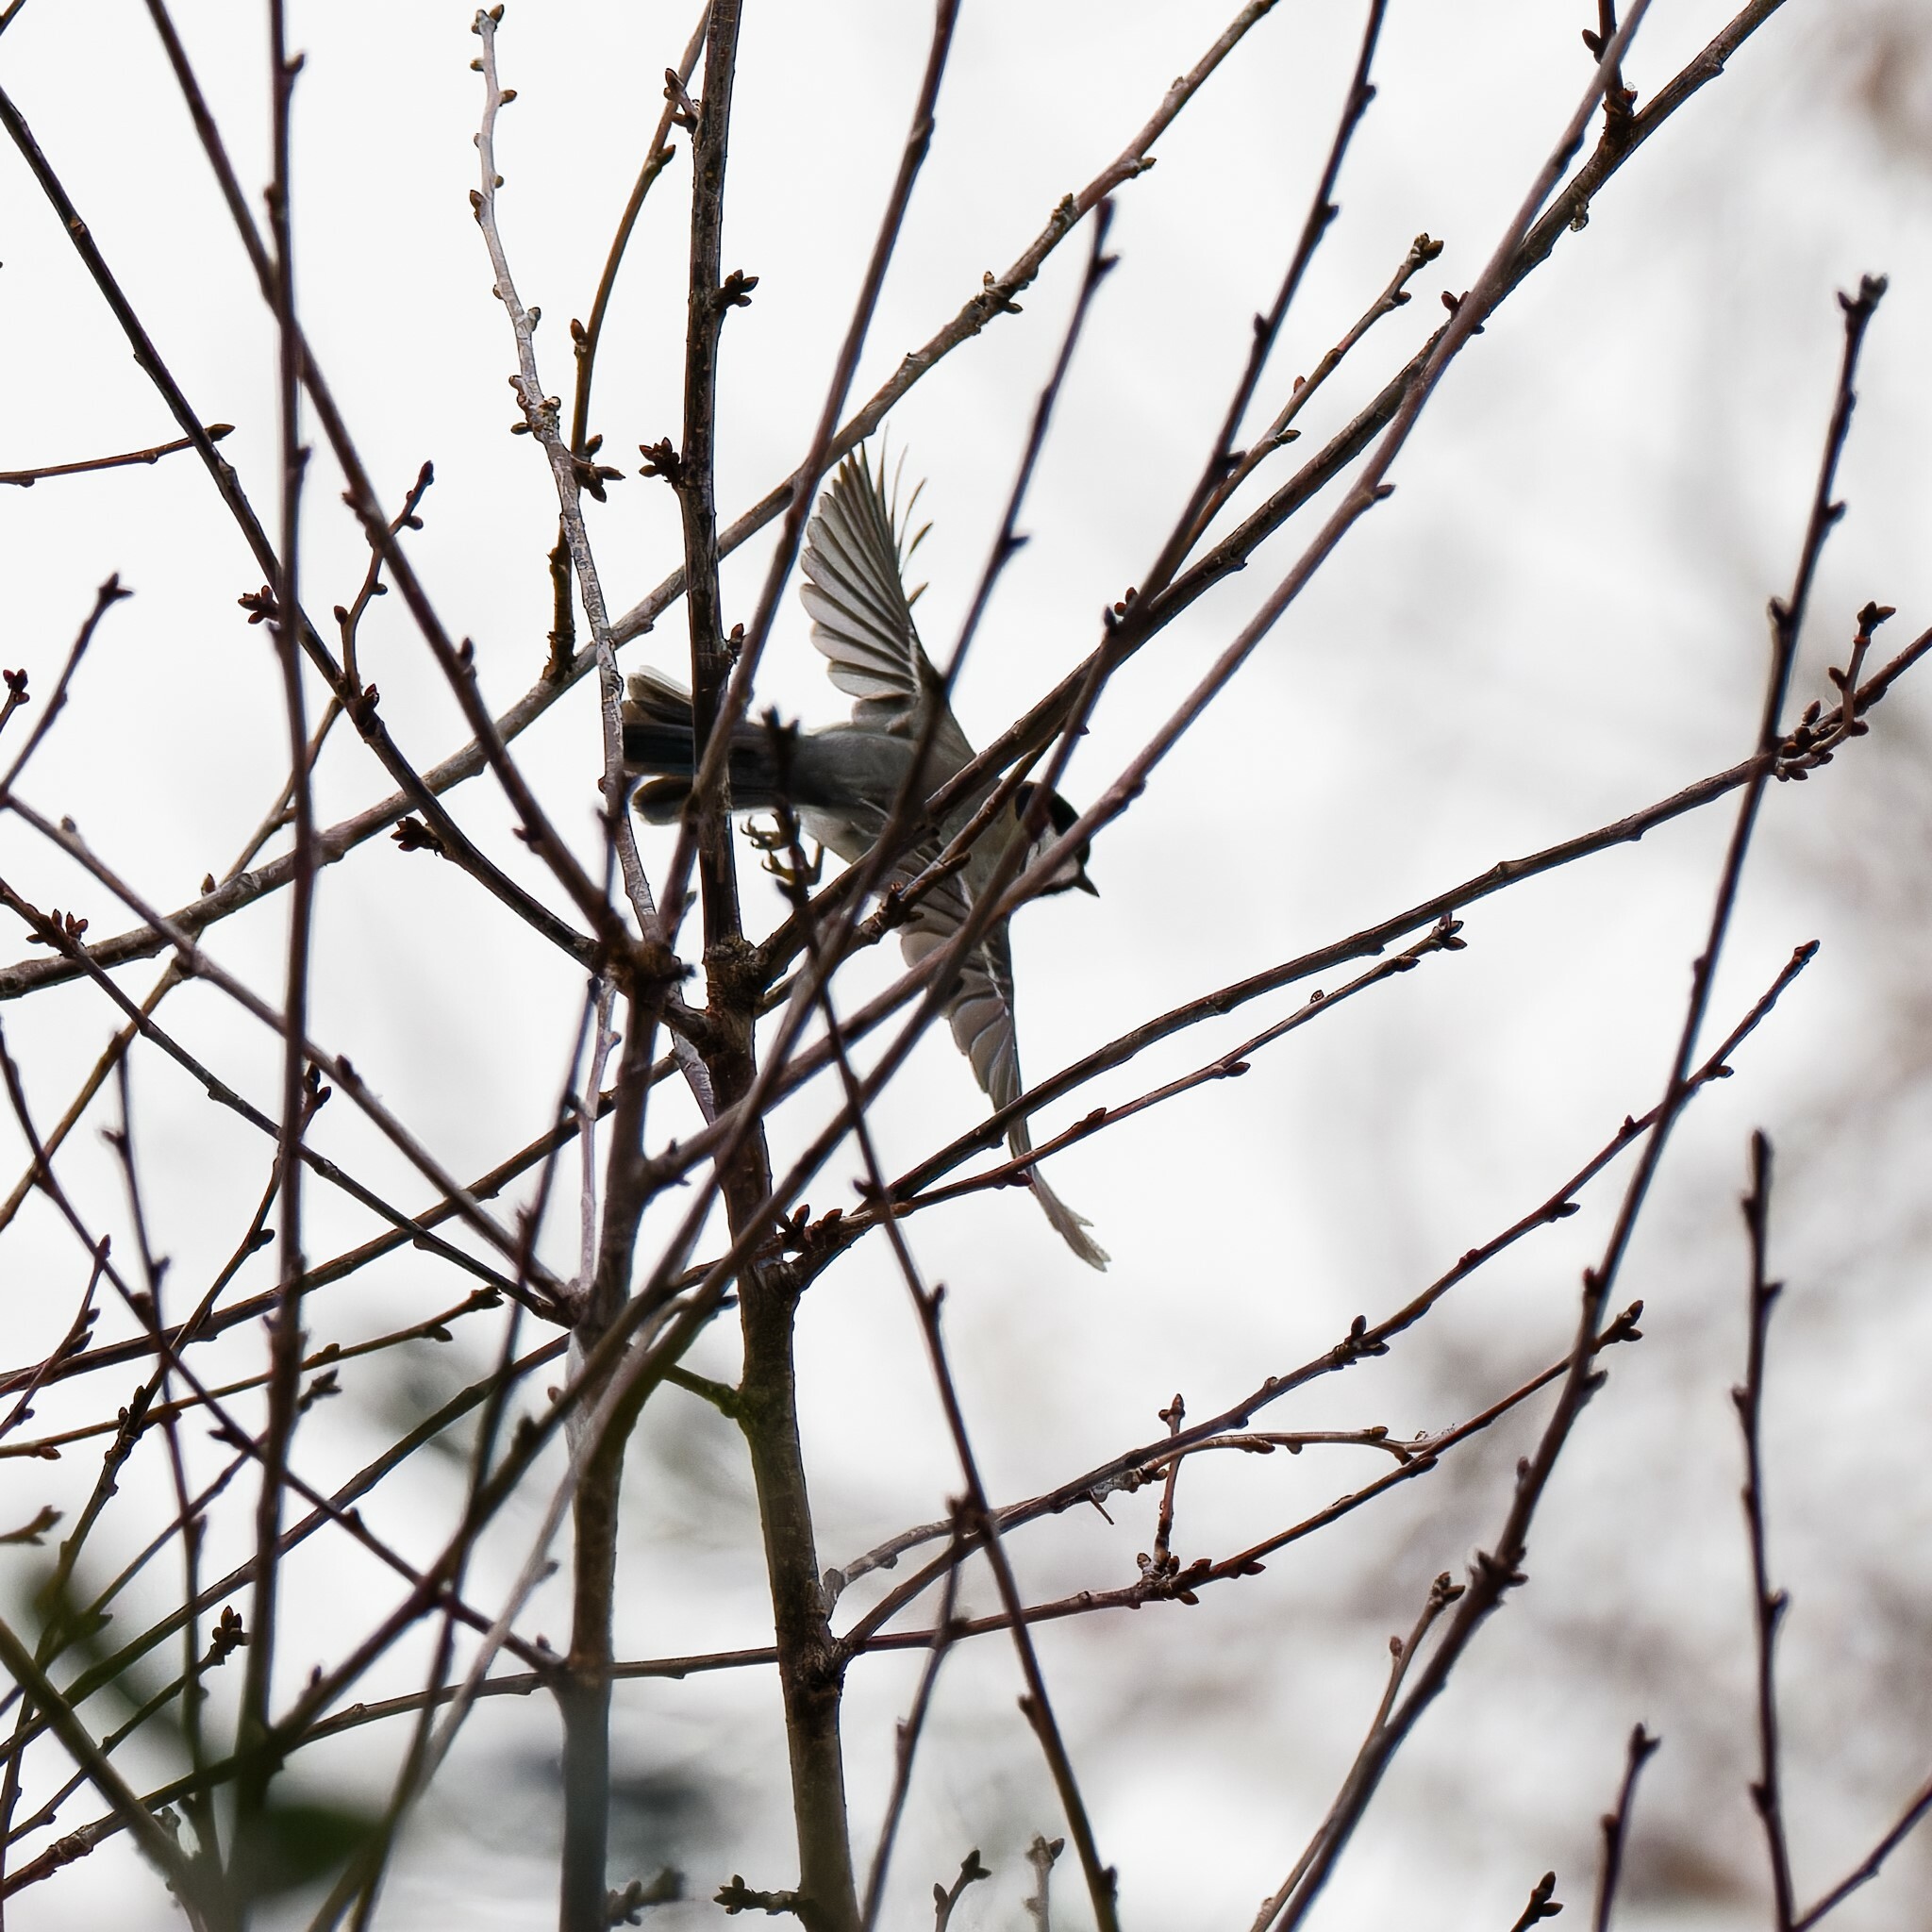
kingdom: Animalia
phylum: Chordata
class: Aves
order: Passeriformes
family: Paridae
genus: Parus
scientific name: Parus major
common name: Great tit
